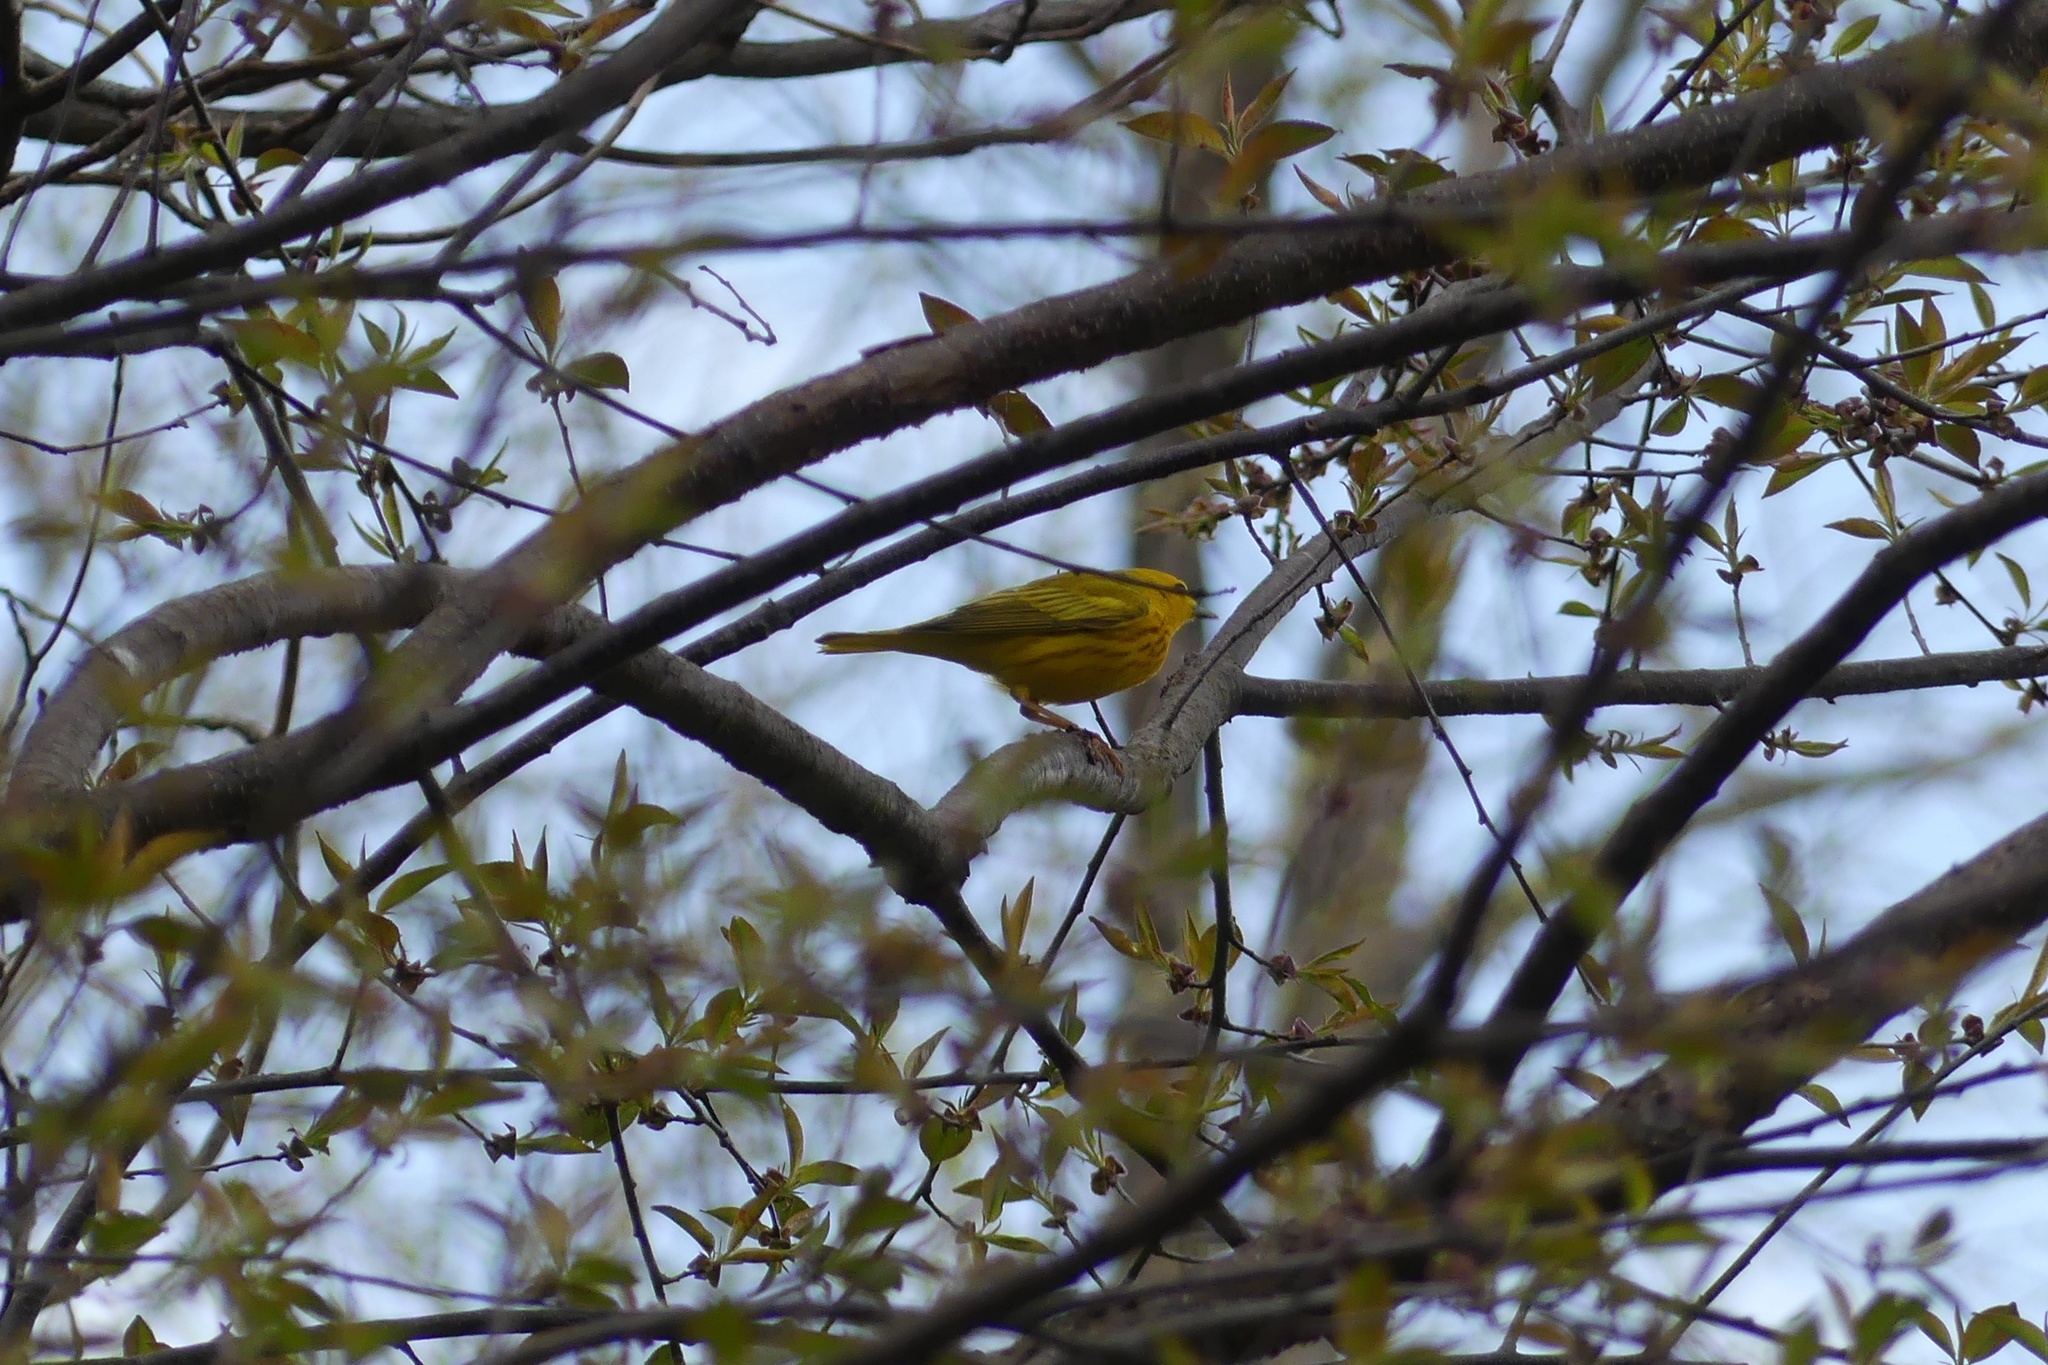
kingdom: Animalia
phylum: Chordata
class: Aves
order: Passeriformes
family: Parulidae
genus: Setophaga
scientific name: Setophaga petechia
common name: Yellow warbler
